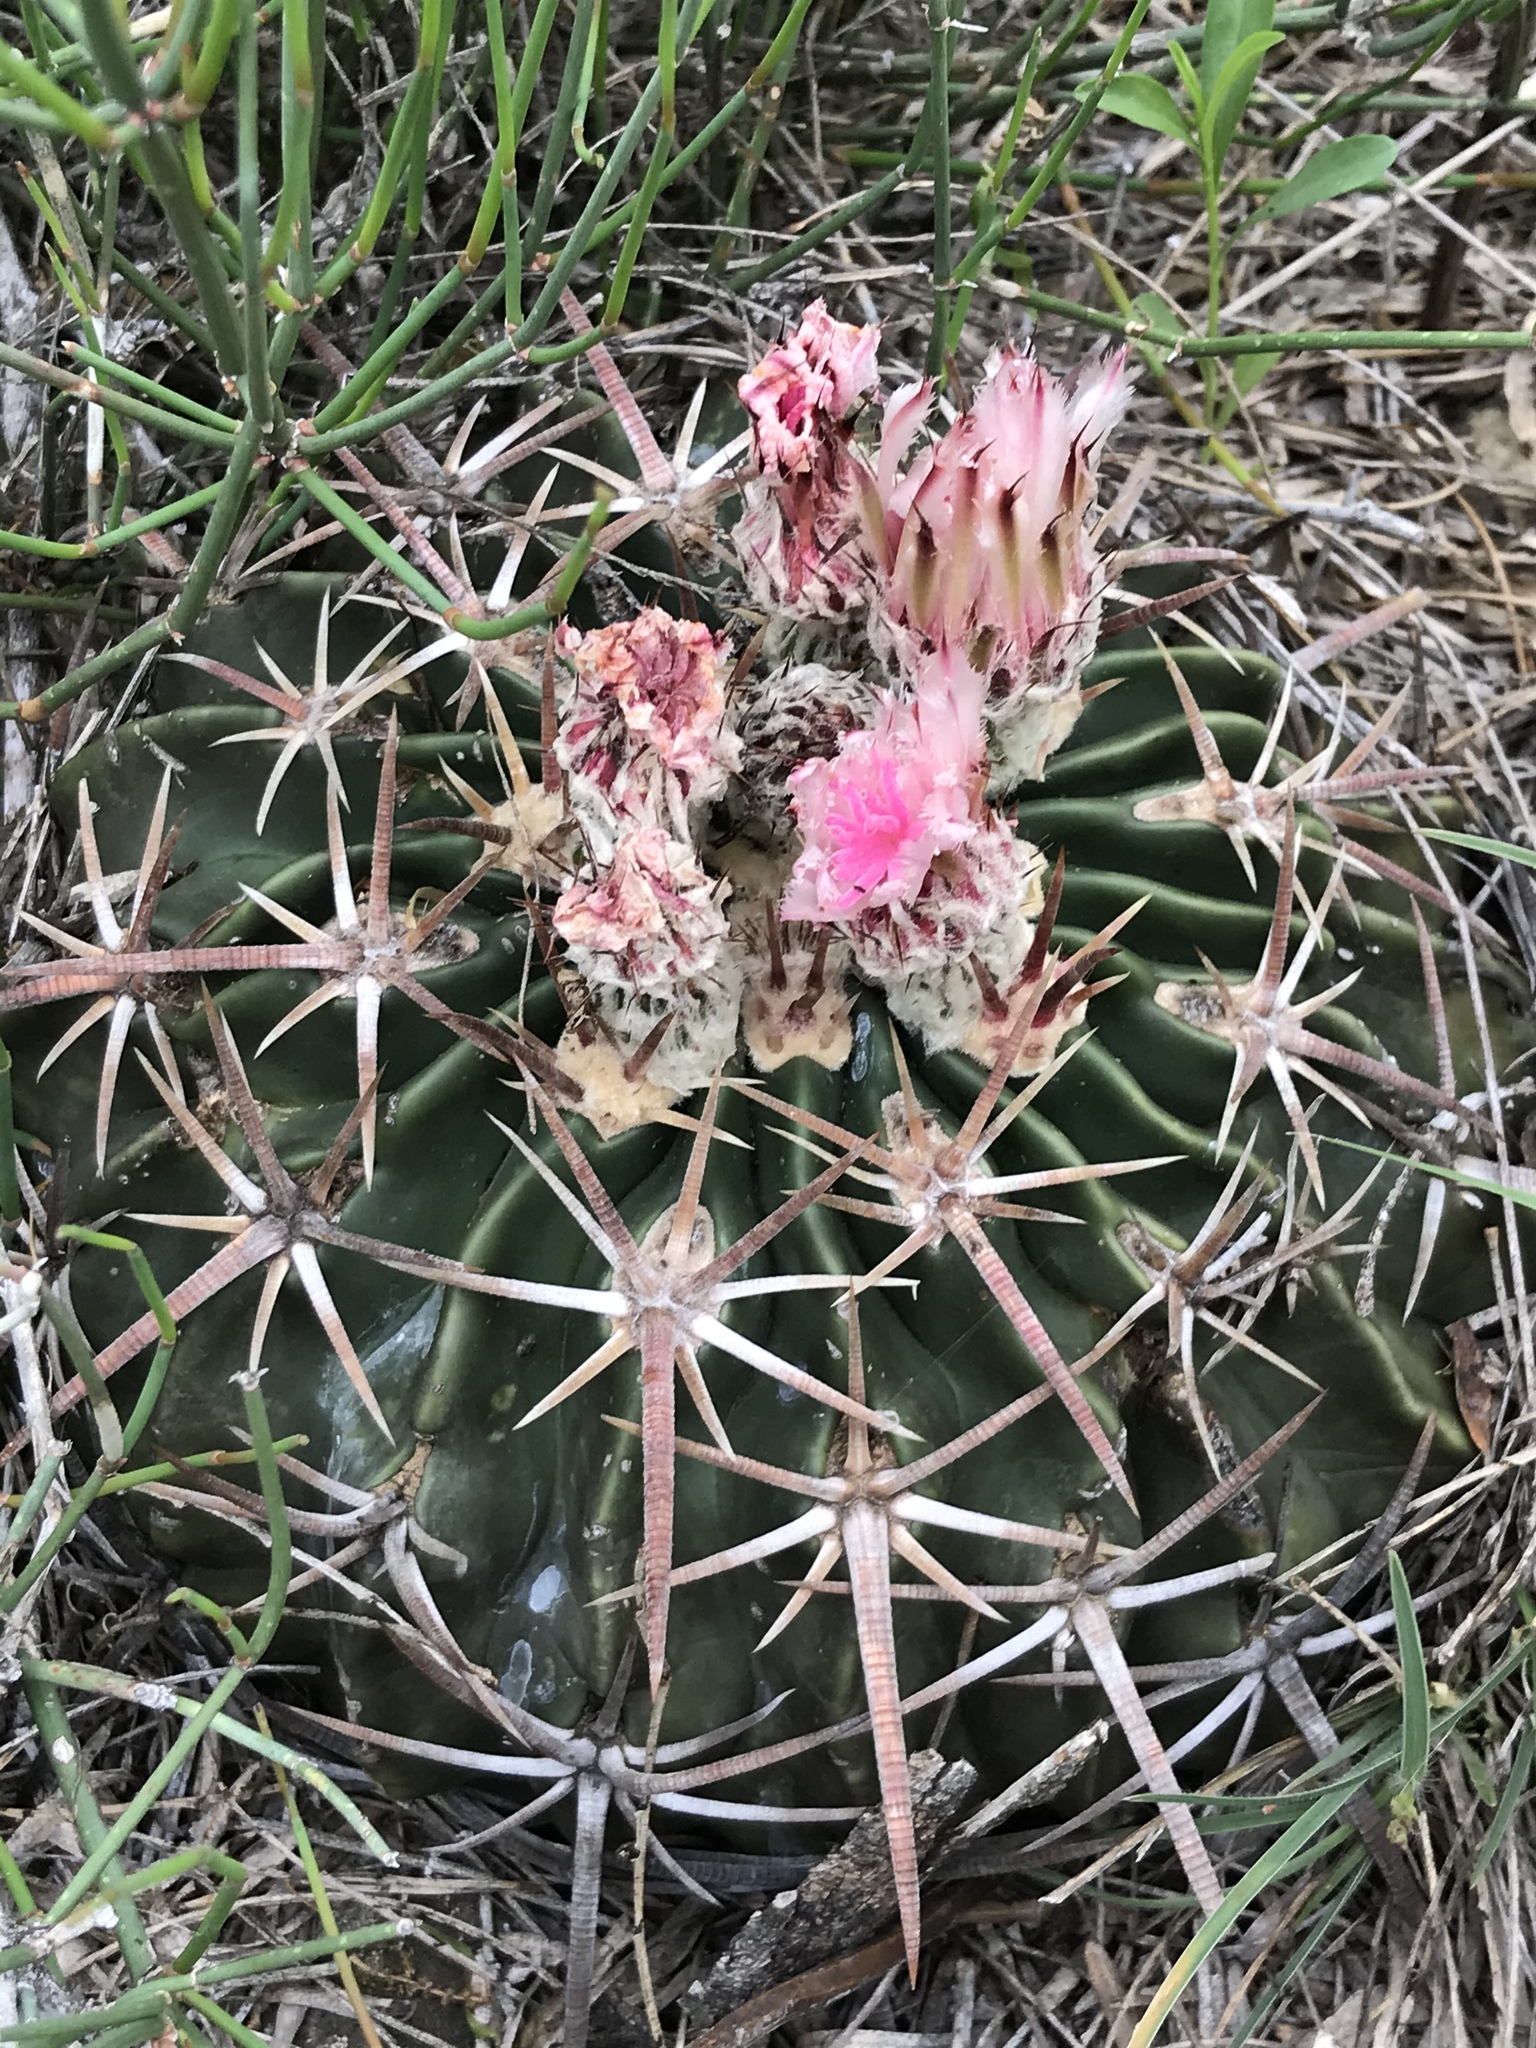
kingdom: Plantae
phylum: Tracheophyta
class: Magnoliopsida
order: Caryophyllales
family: Cactaceae
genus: Echinocactus
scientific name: Echinocactus texensis
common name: Devil's pincushion
